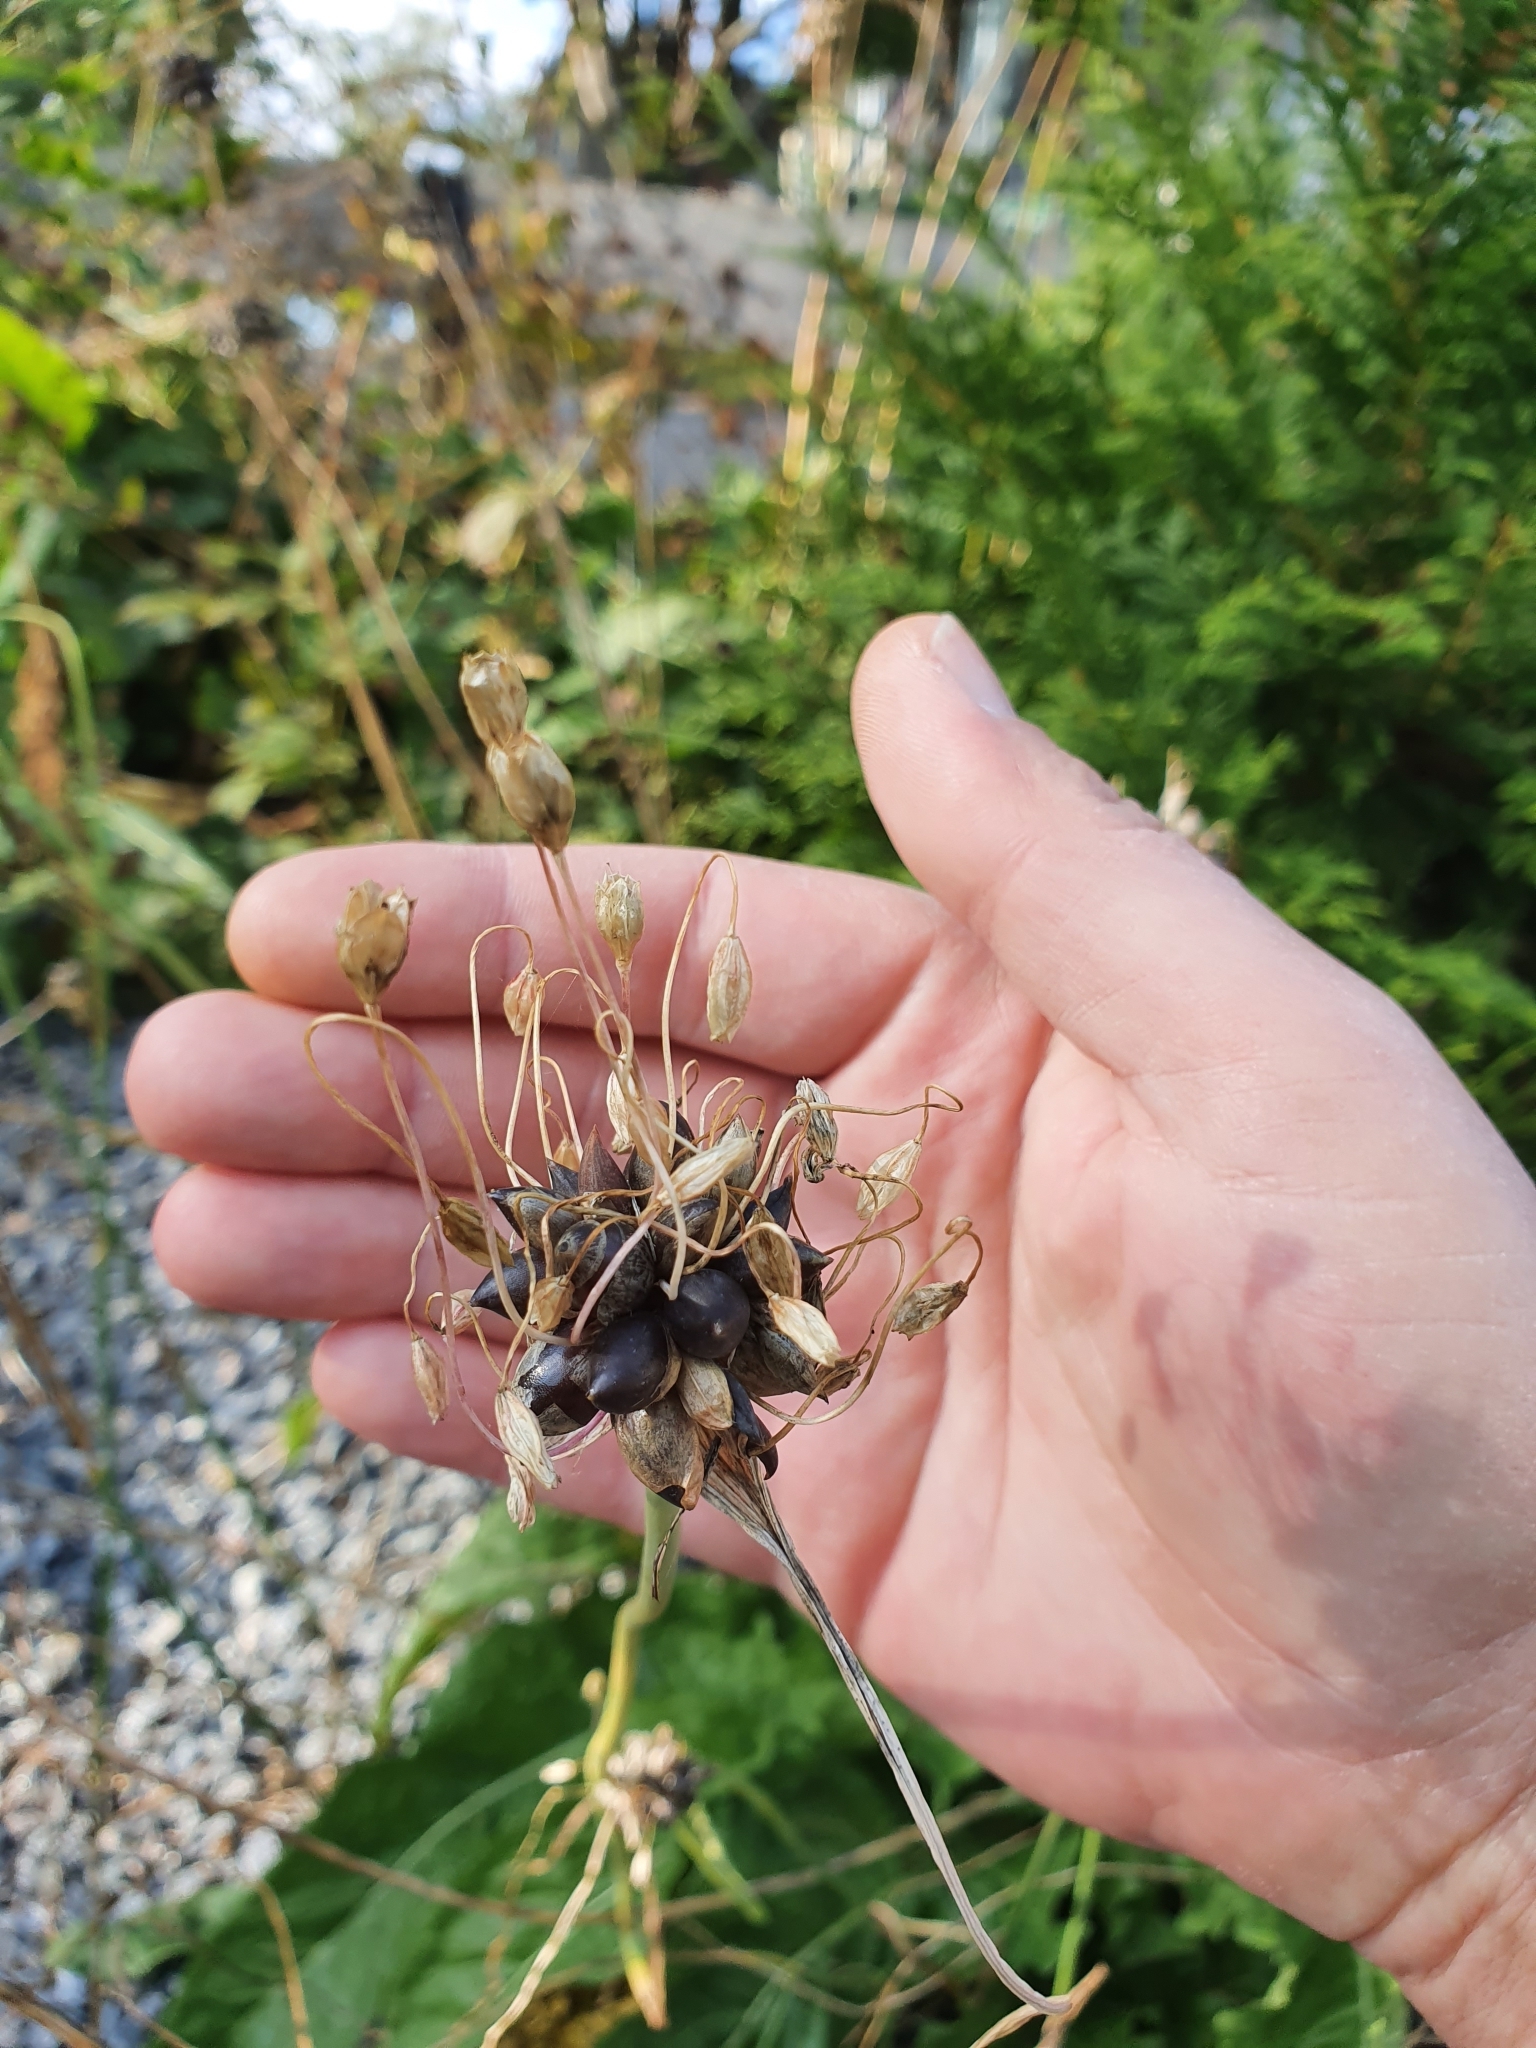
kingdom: Plantae
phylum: Tracheophyta
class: Liliopsida
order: Asparagales
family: Amaryllidaceae
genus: Allium
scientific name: Allium oleraceum
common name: Field garlic
